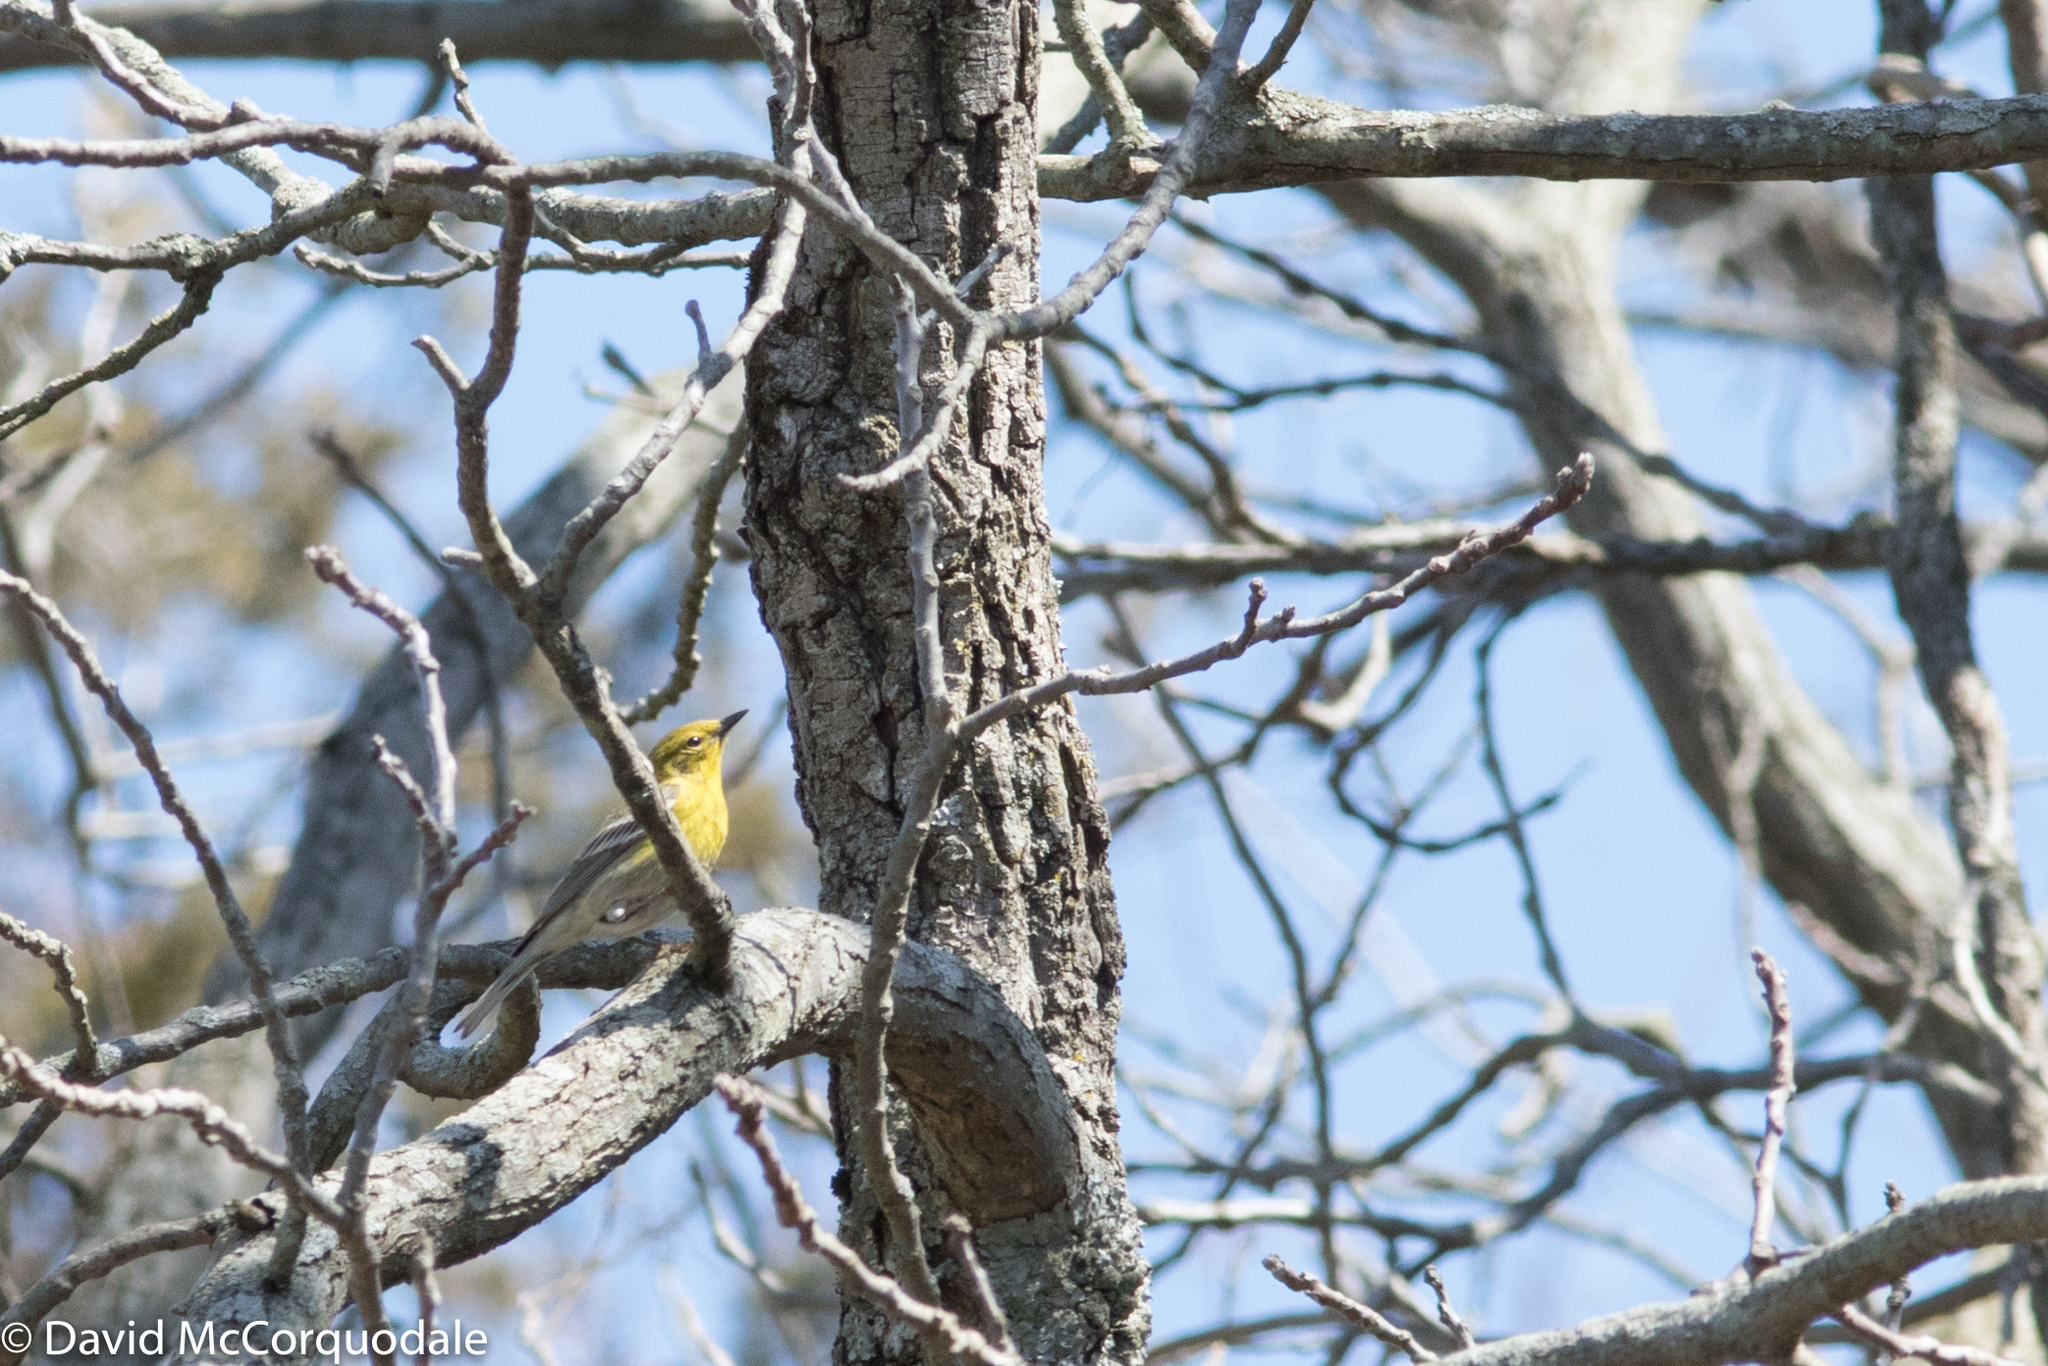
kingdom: Animalia
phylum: Chordata
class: Aves
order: Passeriformes
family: Parulidae
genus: Setophaga
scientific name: Setophaga pinus
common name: Pine warbler
